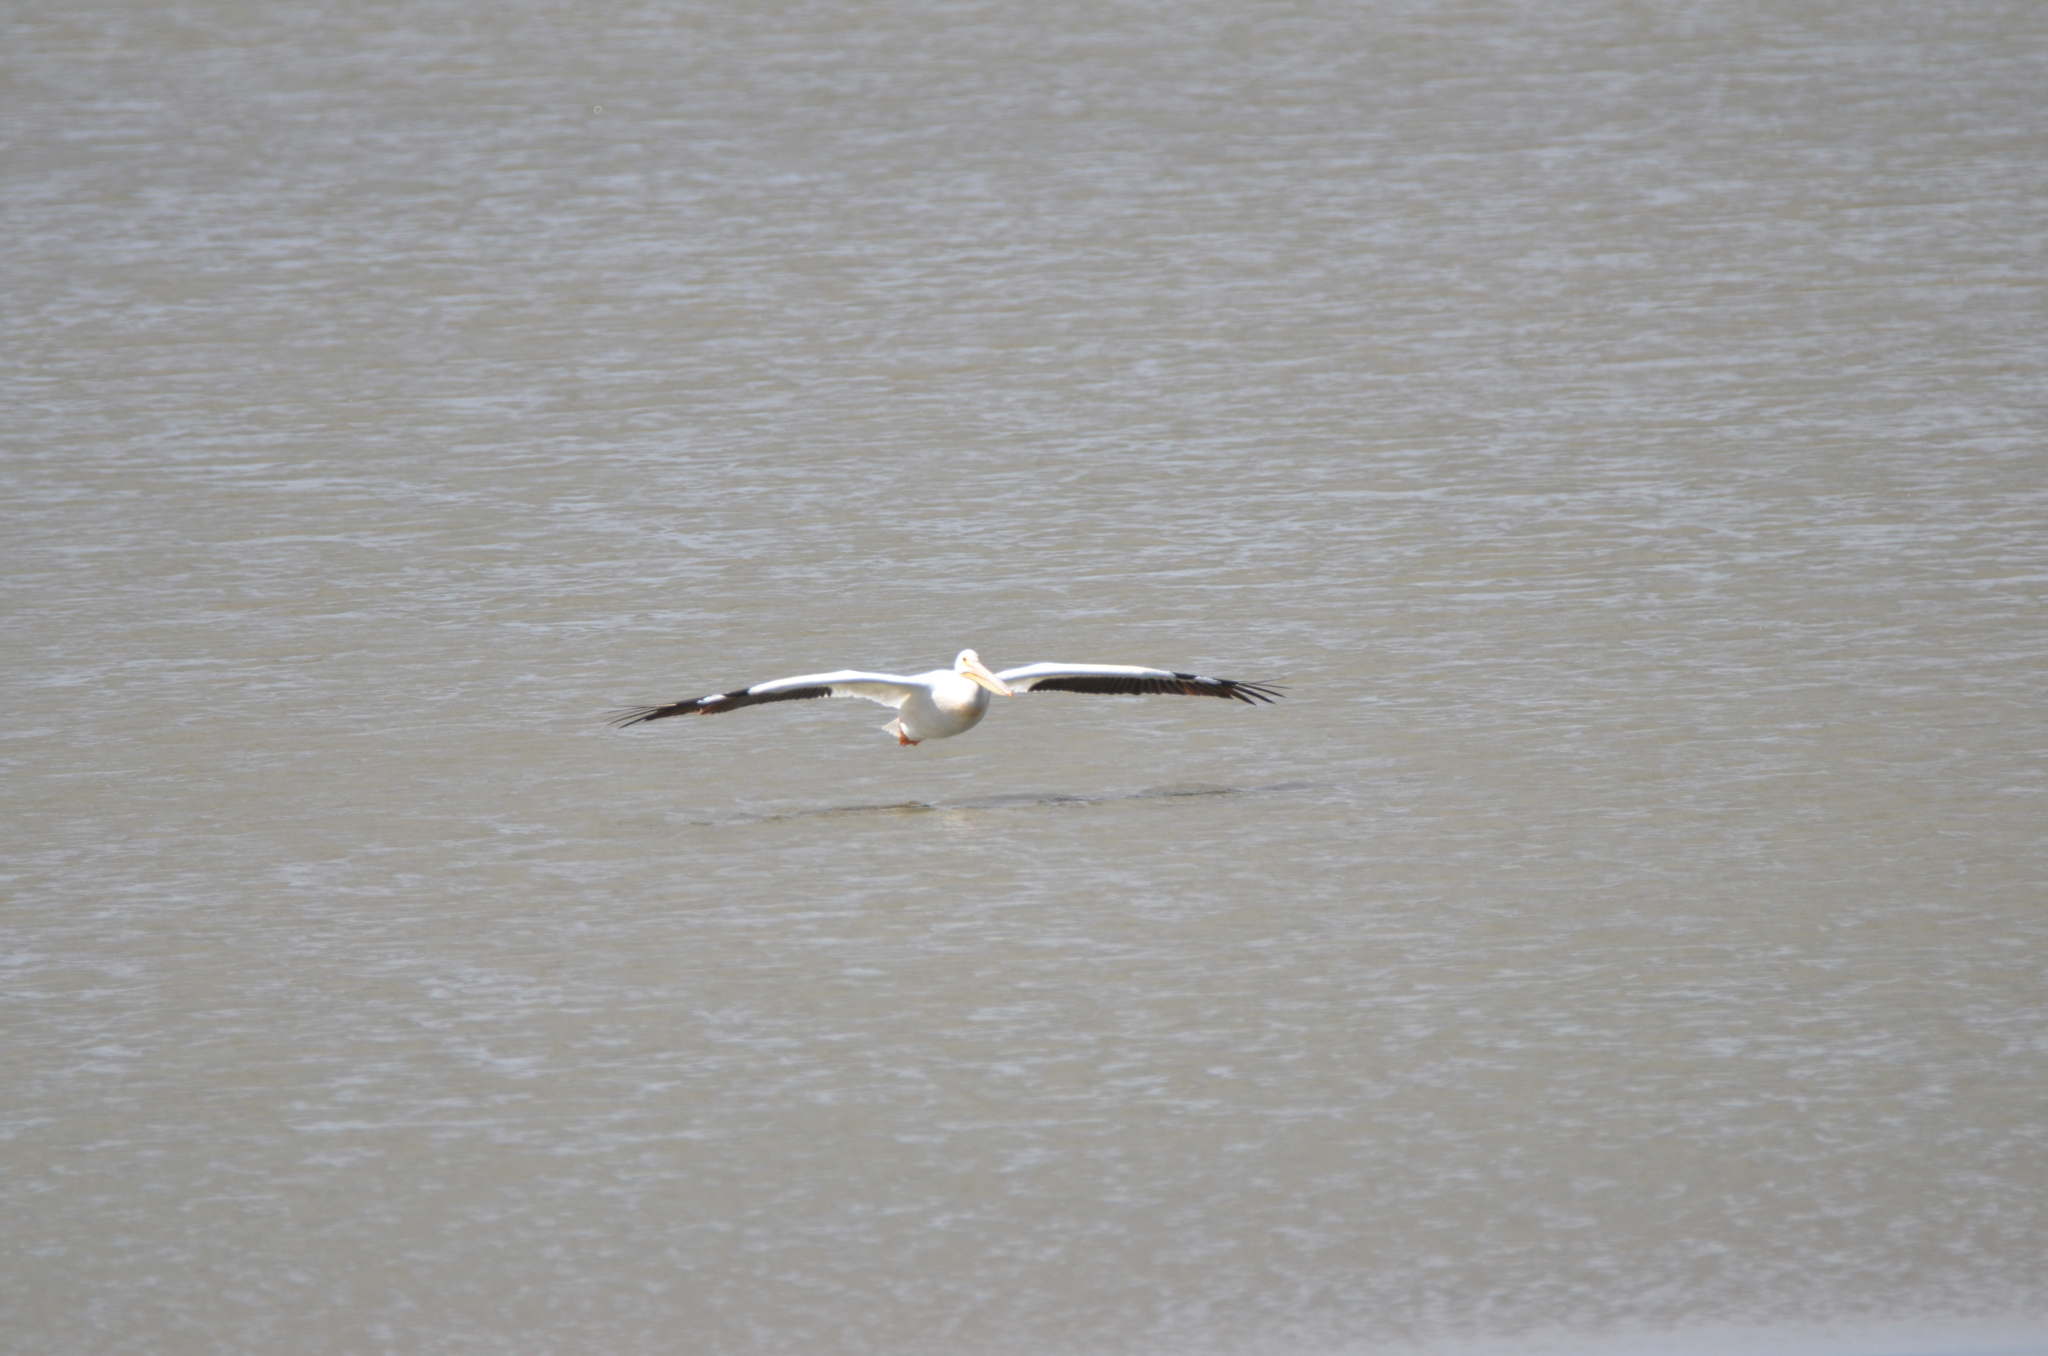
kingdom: Animalia
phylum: Chordata
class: Aves
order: Pelecaniformes
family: Pelecanidae
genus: Pelecanus
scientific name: Pelecanus erythrorhynchos
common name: American white pelican
